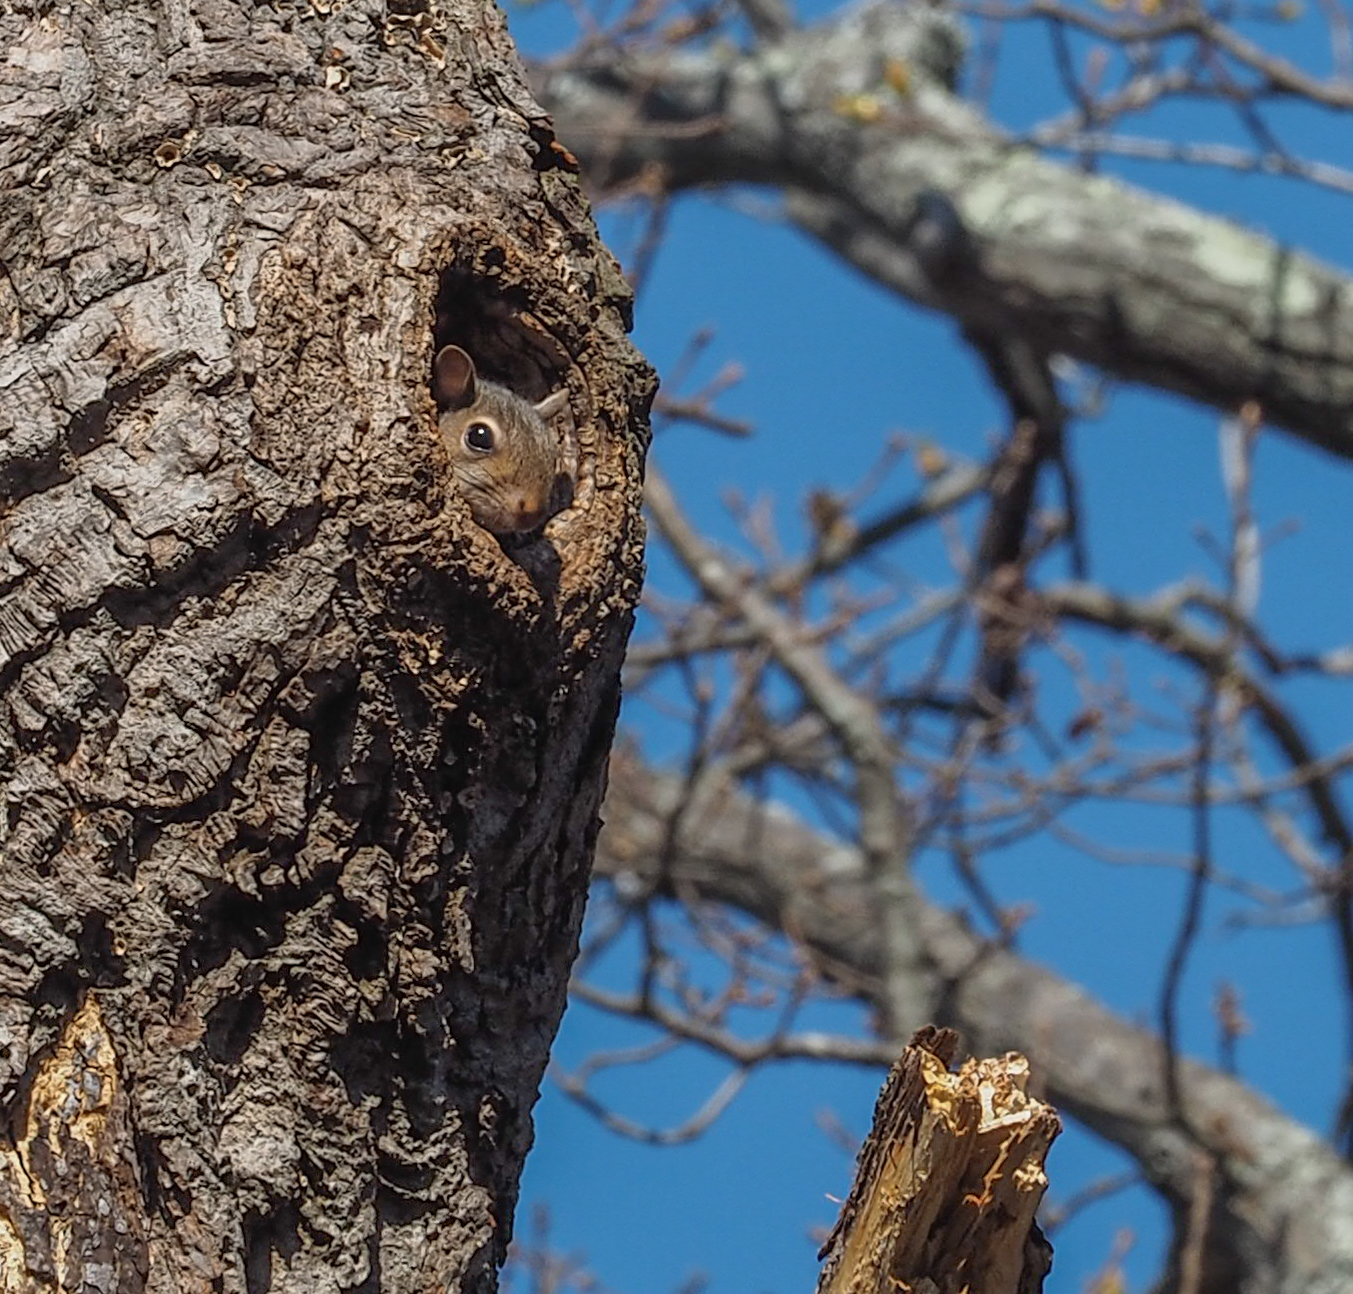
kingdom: Animalia
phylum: Chordata
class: Mammalia
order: Rodentia
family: Sciuridae
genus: Sciurus
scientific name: Sciurus carolinensis
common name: Eastern gray squirrel
